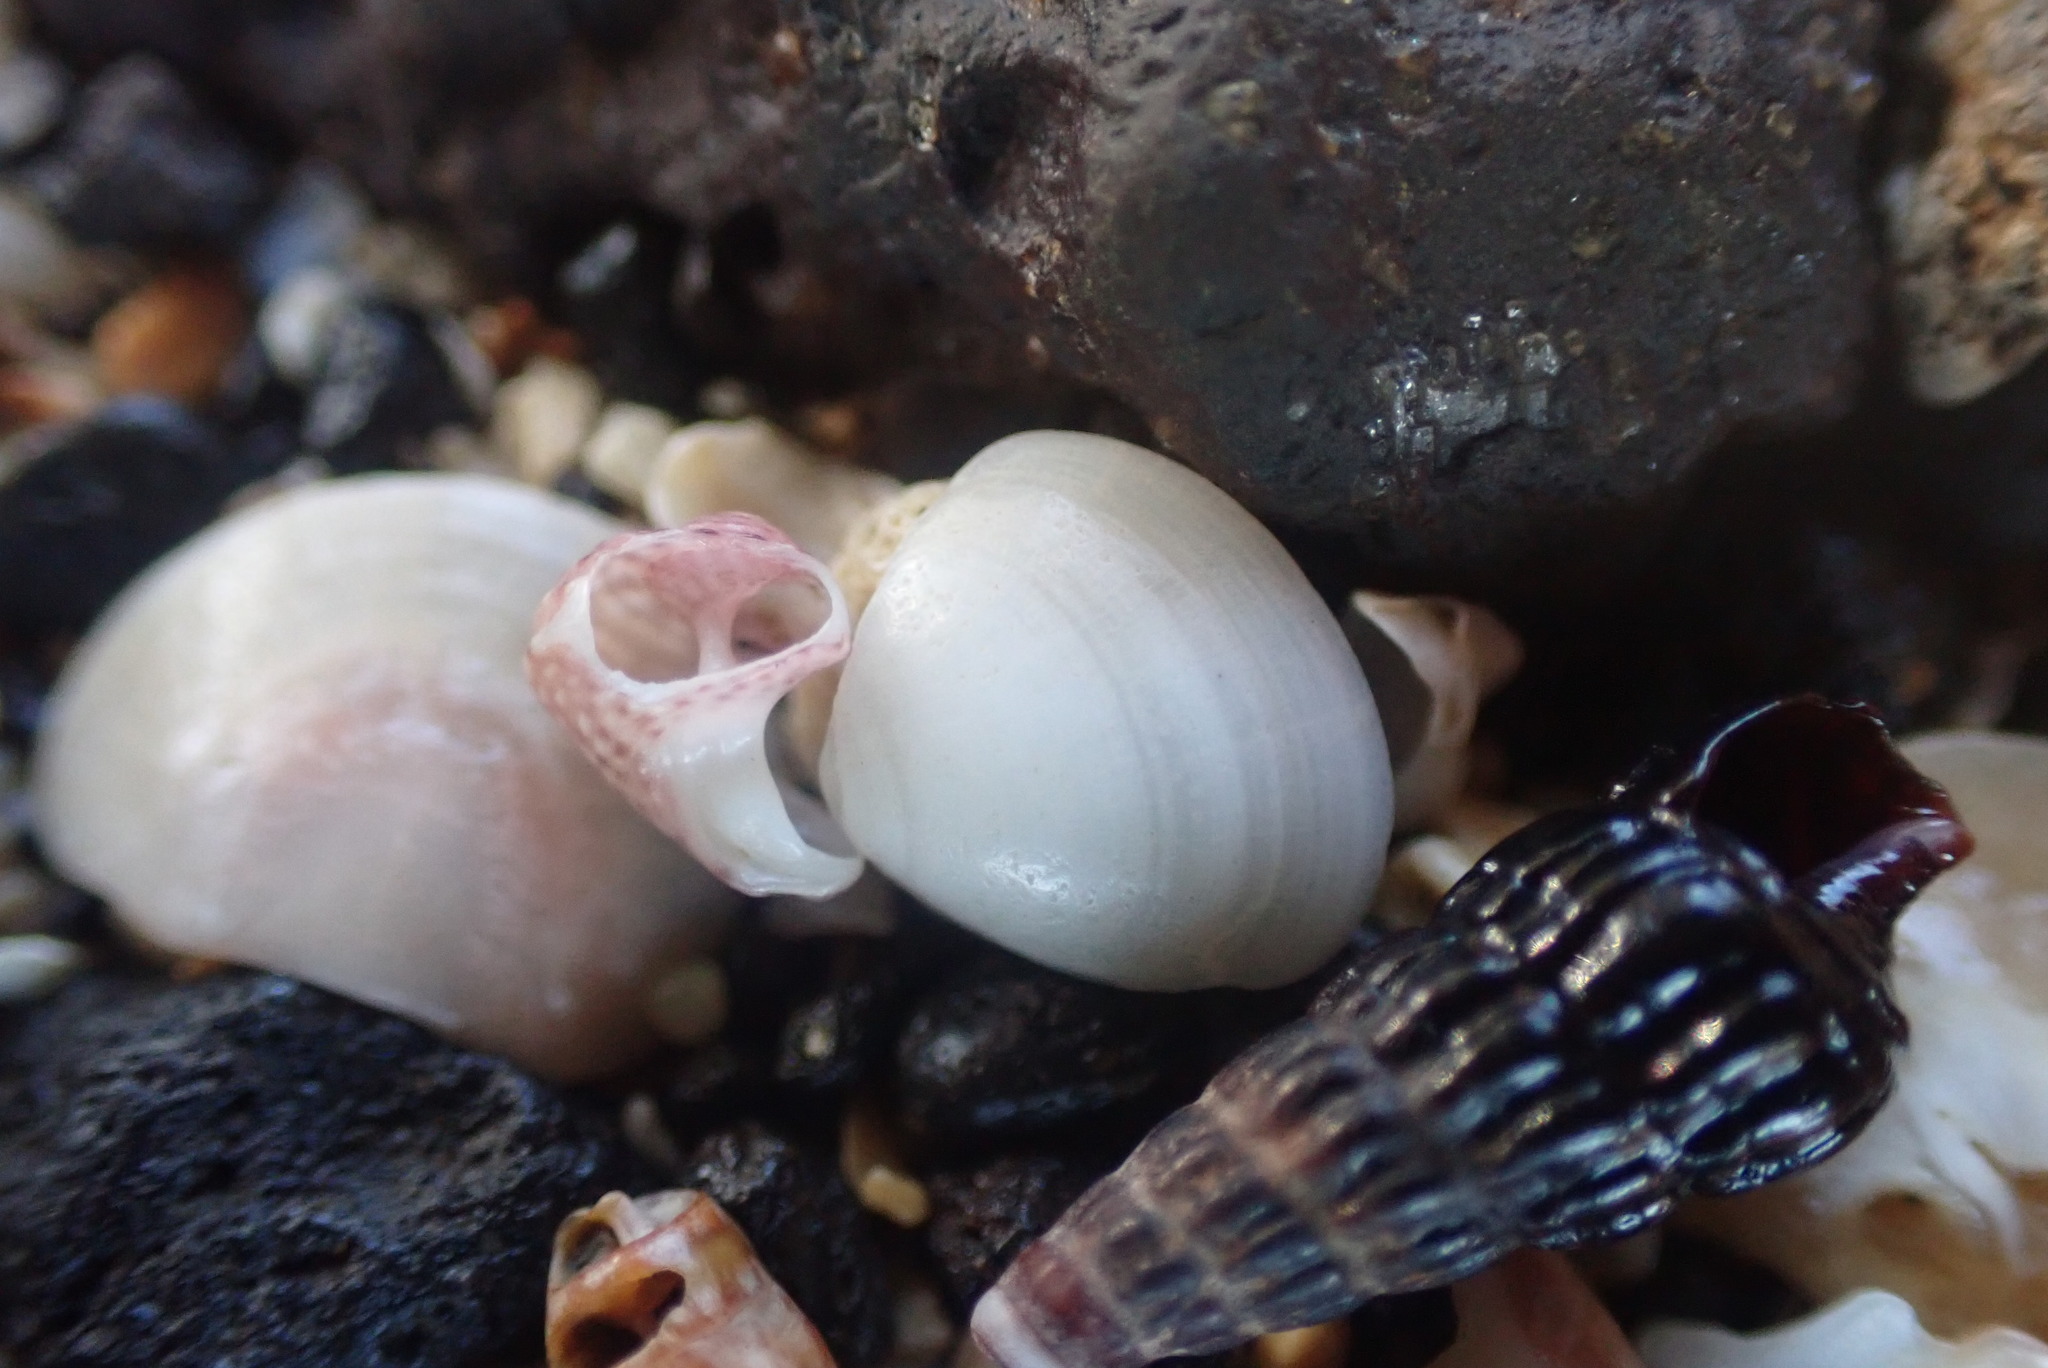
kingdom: Animalia
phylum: Mollusca
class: Bivalvia
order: Nuculida
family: Nuculidae
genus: Nucula
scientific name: Nucula nitidula
